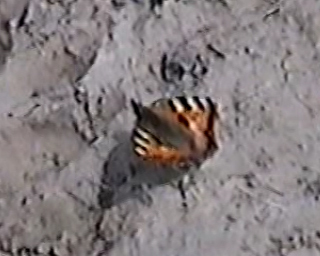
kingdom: Animalia
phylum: Arthropoda
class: Insecta
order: Lepidoptera
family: Nymphalidae
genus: Aglais
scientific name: Aglais urticae
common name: Small tortoiseshell
